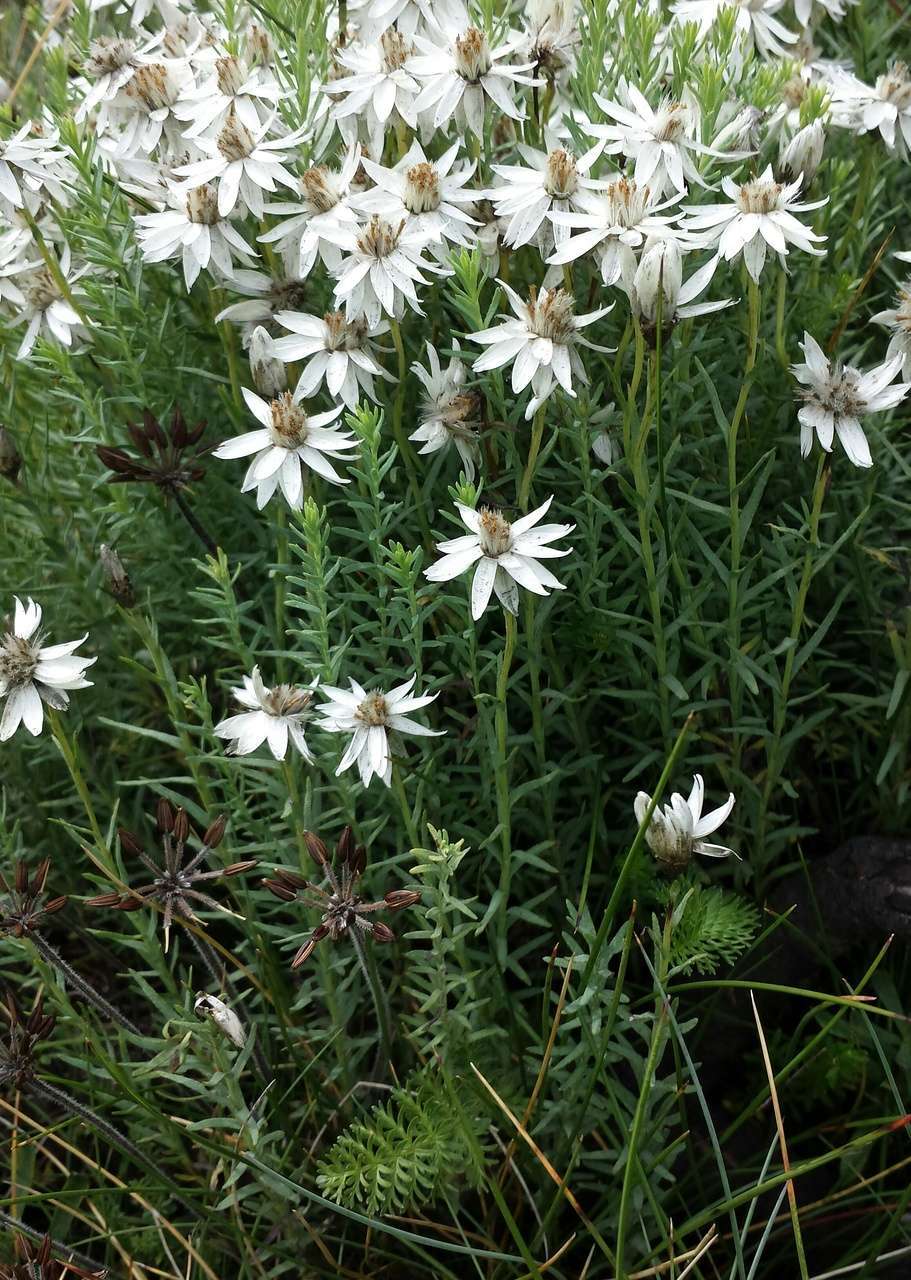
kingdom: Plantae
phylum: Tracheophyta
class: Magnoliopsida
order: Asterales
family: Asteraceae
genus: Rhodanthe
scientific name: Rhodanthe anthemoides
